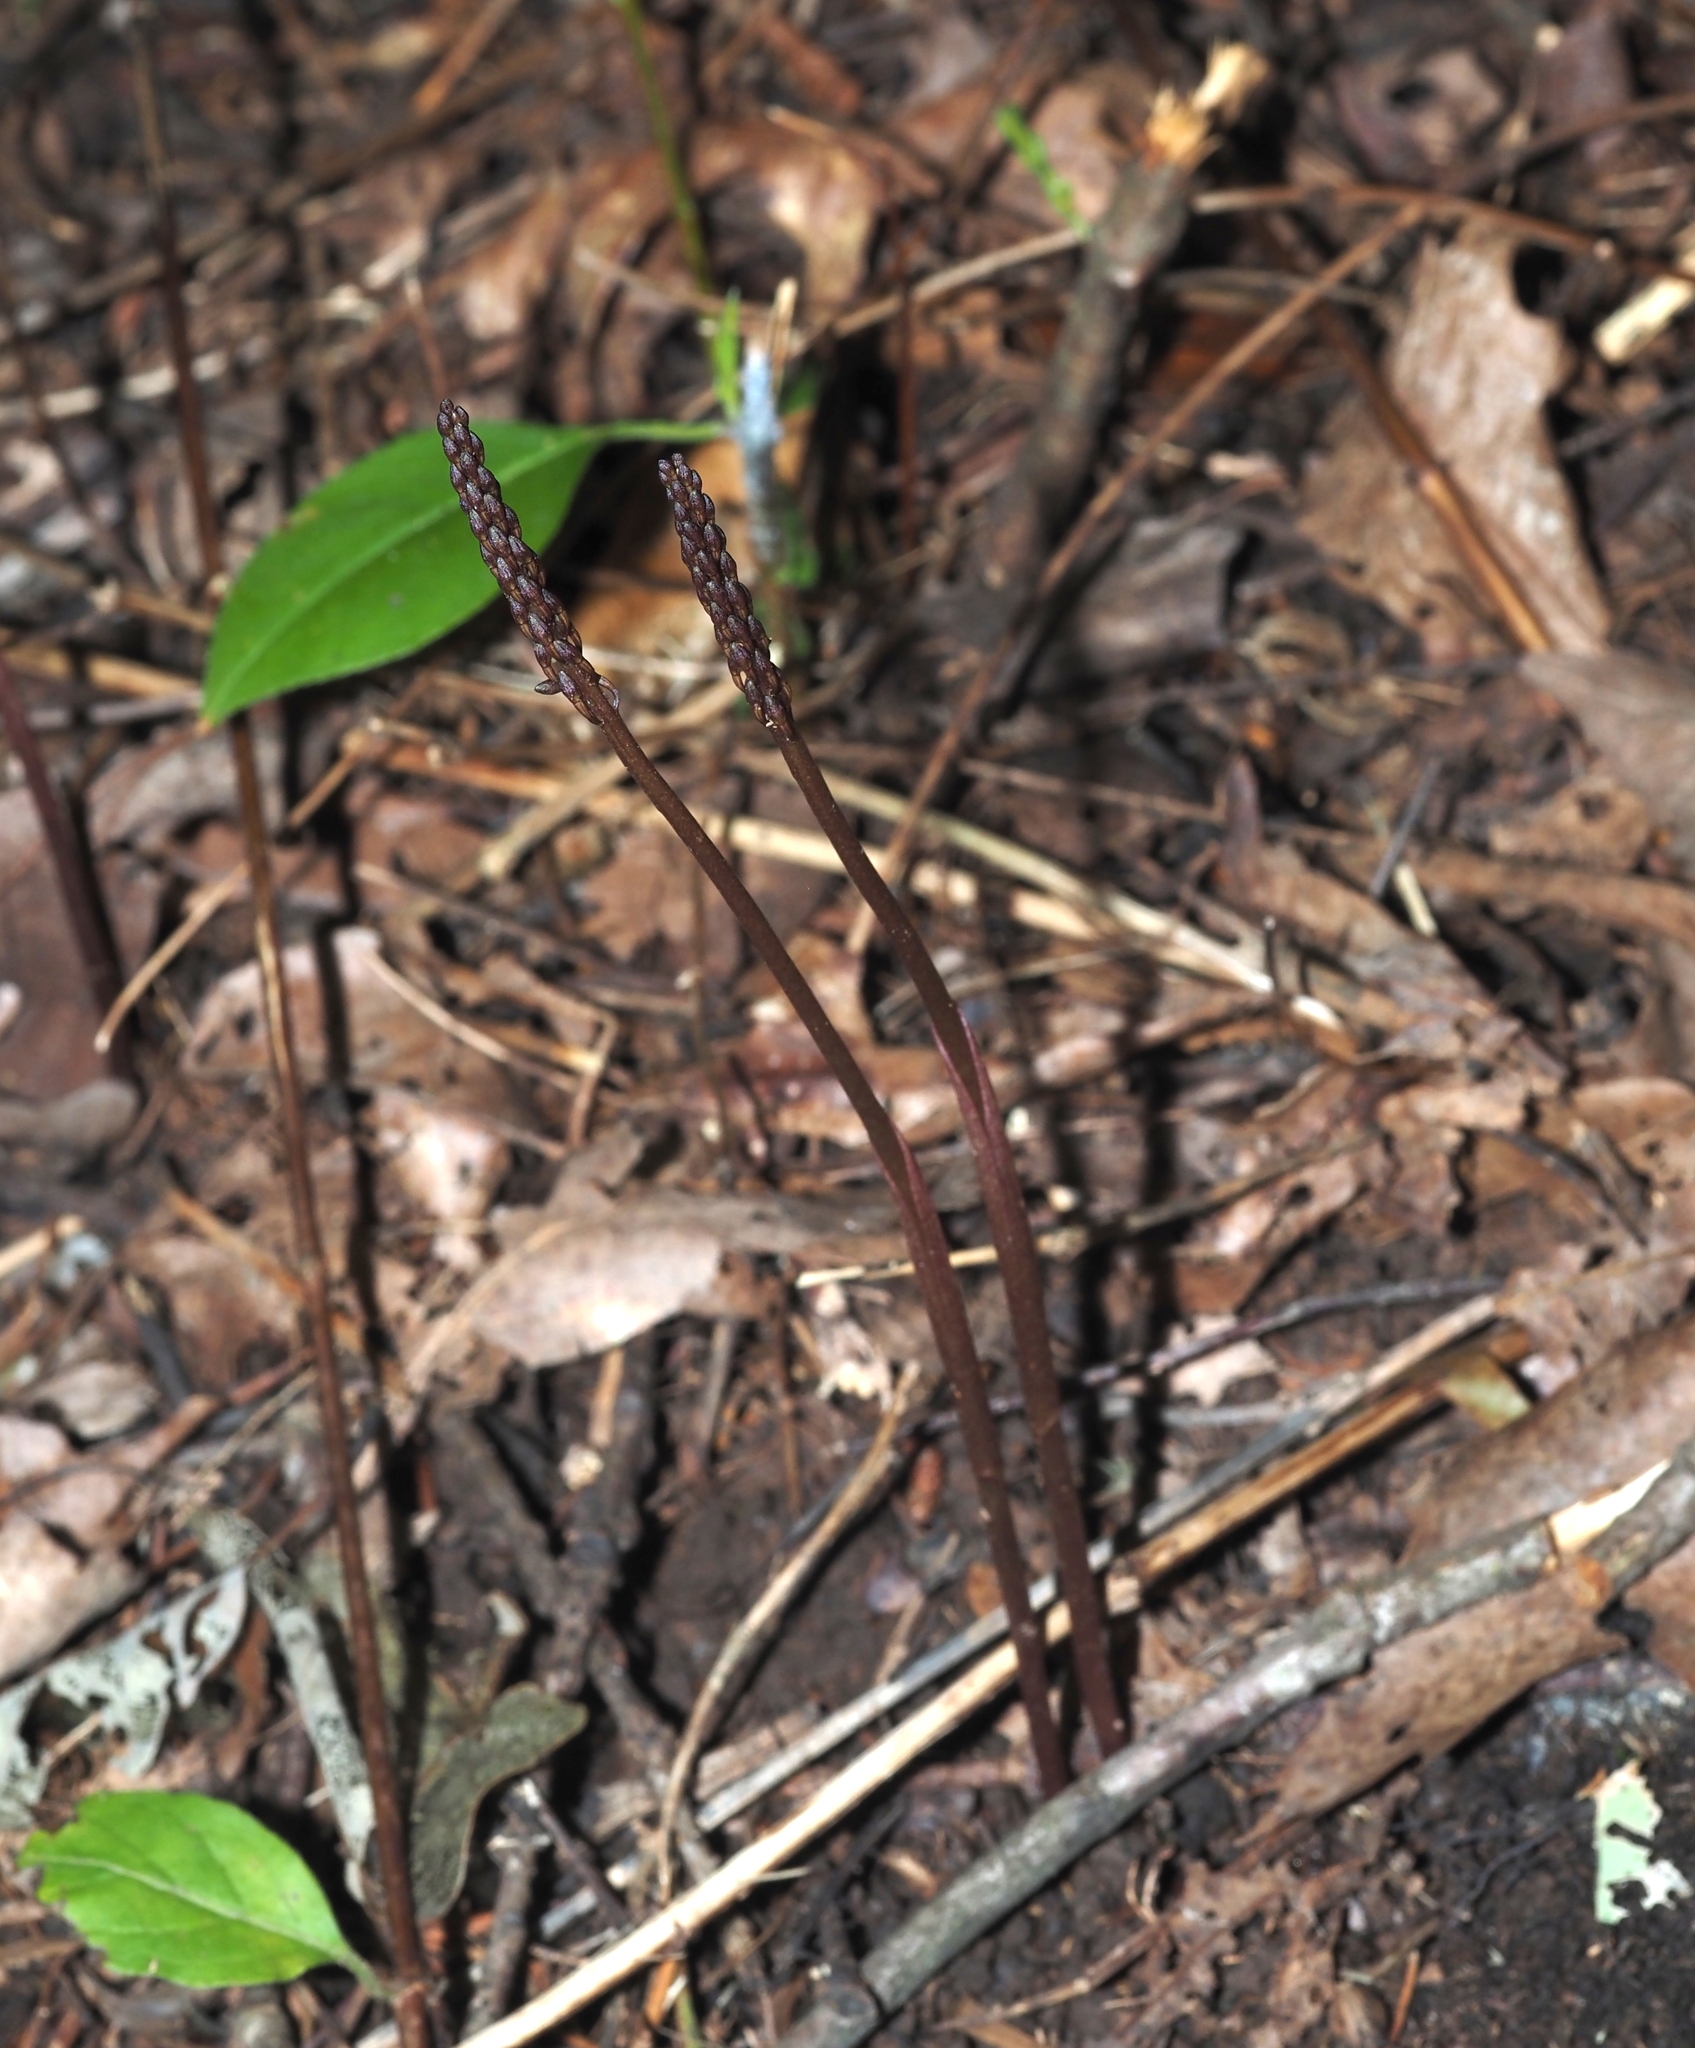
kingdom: Plantae
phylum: Tracheophyta
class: Liliopsida
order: Asparagales
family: Orchidaceae
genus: Tipularia
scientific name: Tipularia discolor
